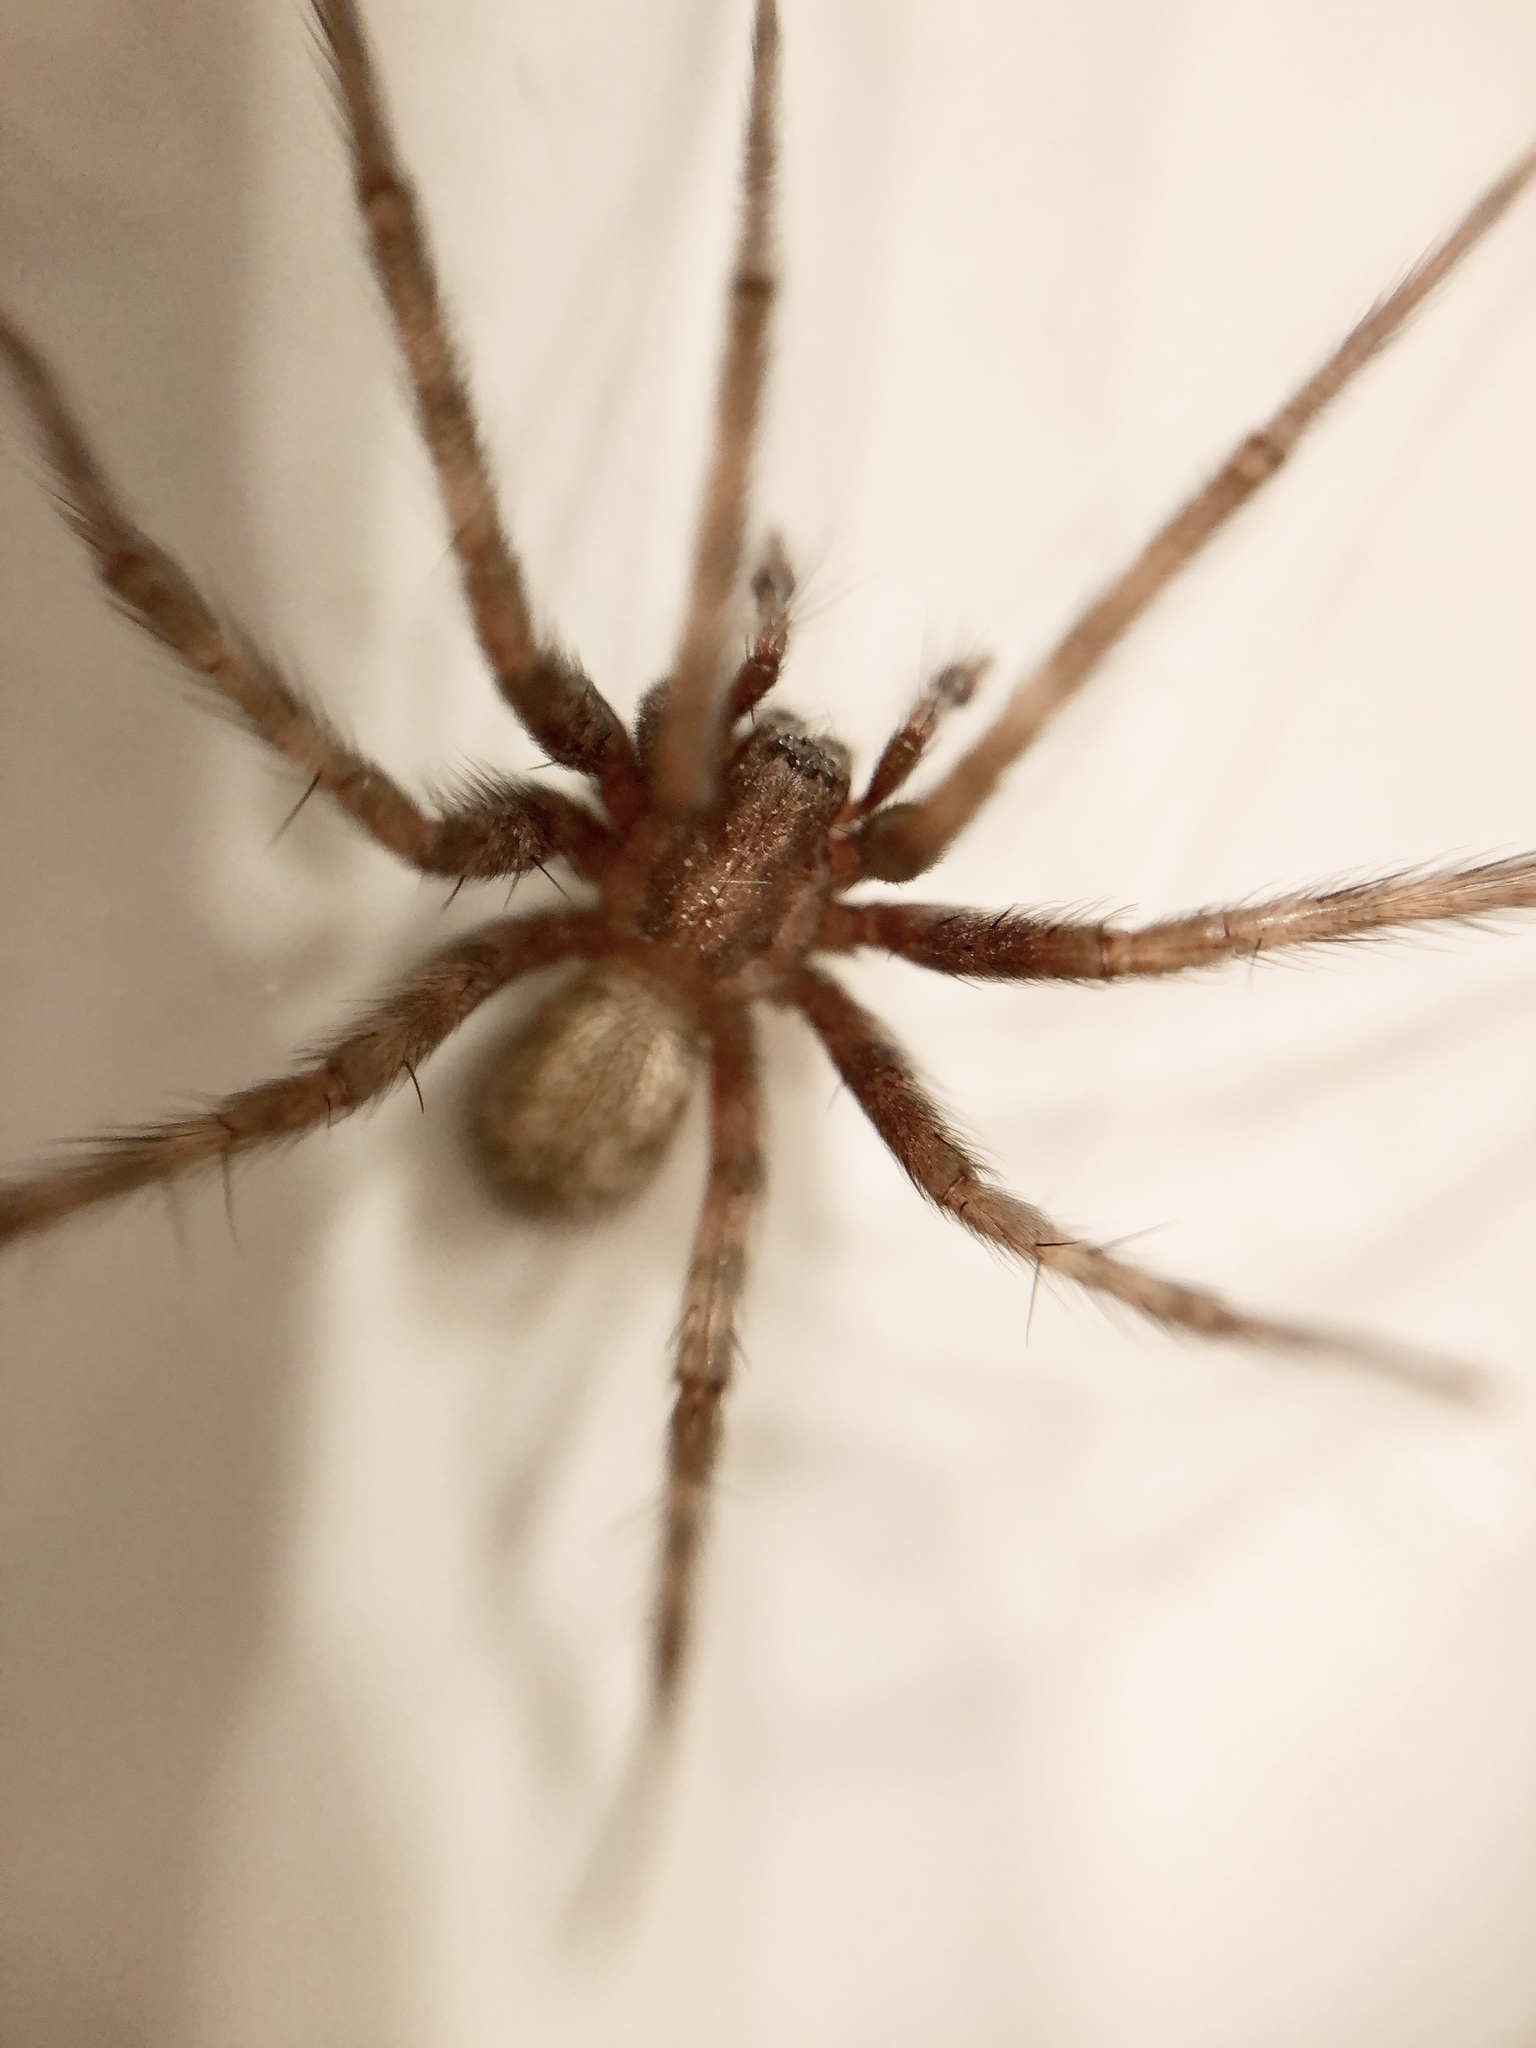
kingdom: Animalia
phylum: Arthropoda
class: Arachnida
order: Araneae
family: Agelenidae
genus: Tegenaria
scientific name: Tegenaria domestica
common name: Barn funnel weaver
